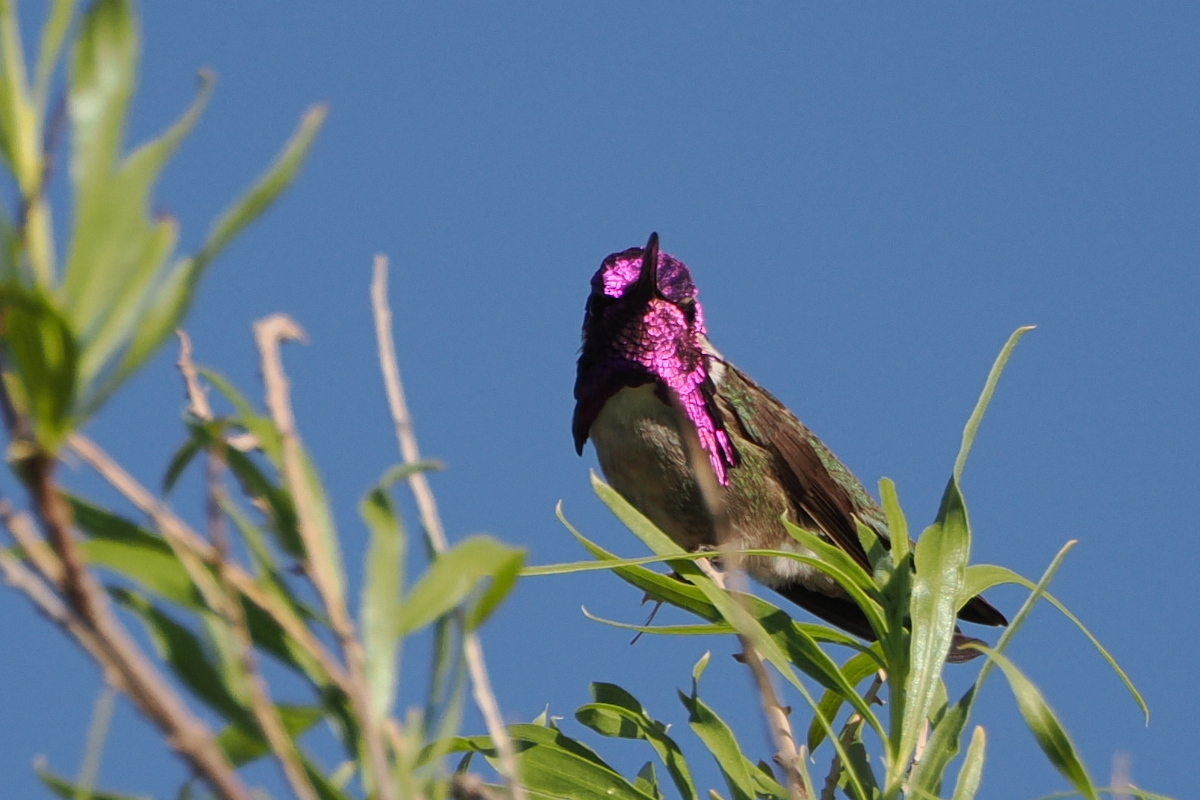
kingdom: Animalia
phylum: Chordata
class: Aves
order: Apodiformes
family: Trochilidae
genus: Calypte
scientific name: Calypte costae
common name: Costa's hummingbird
